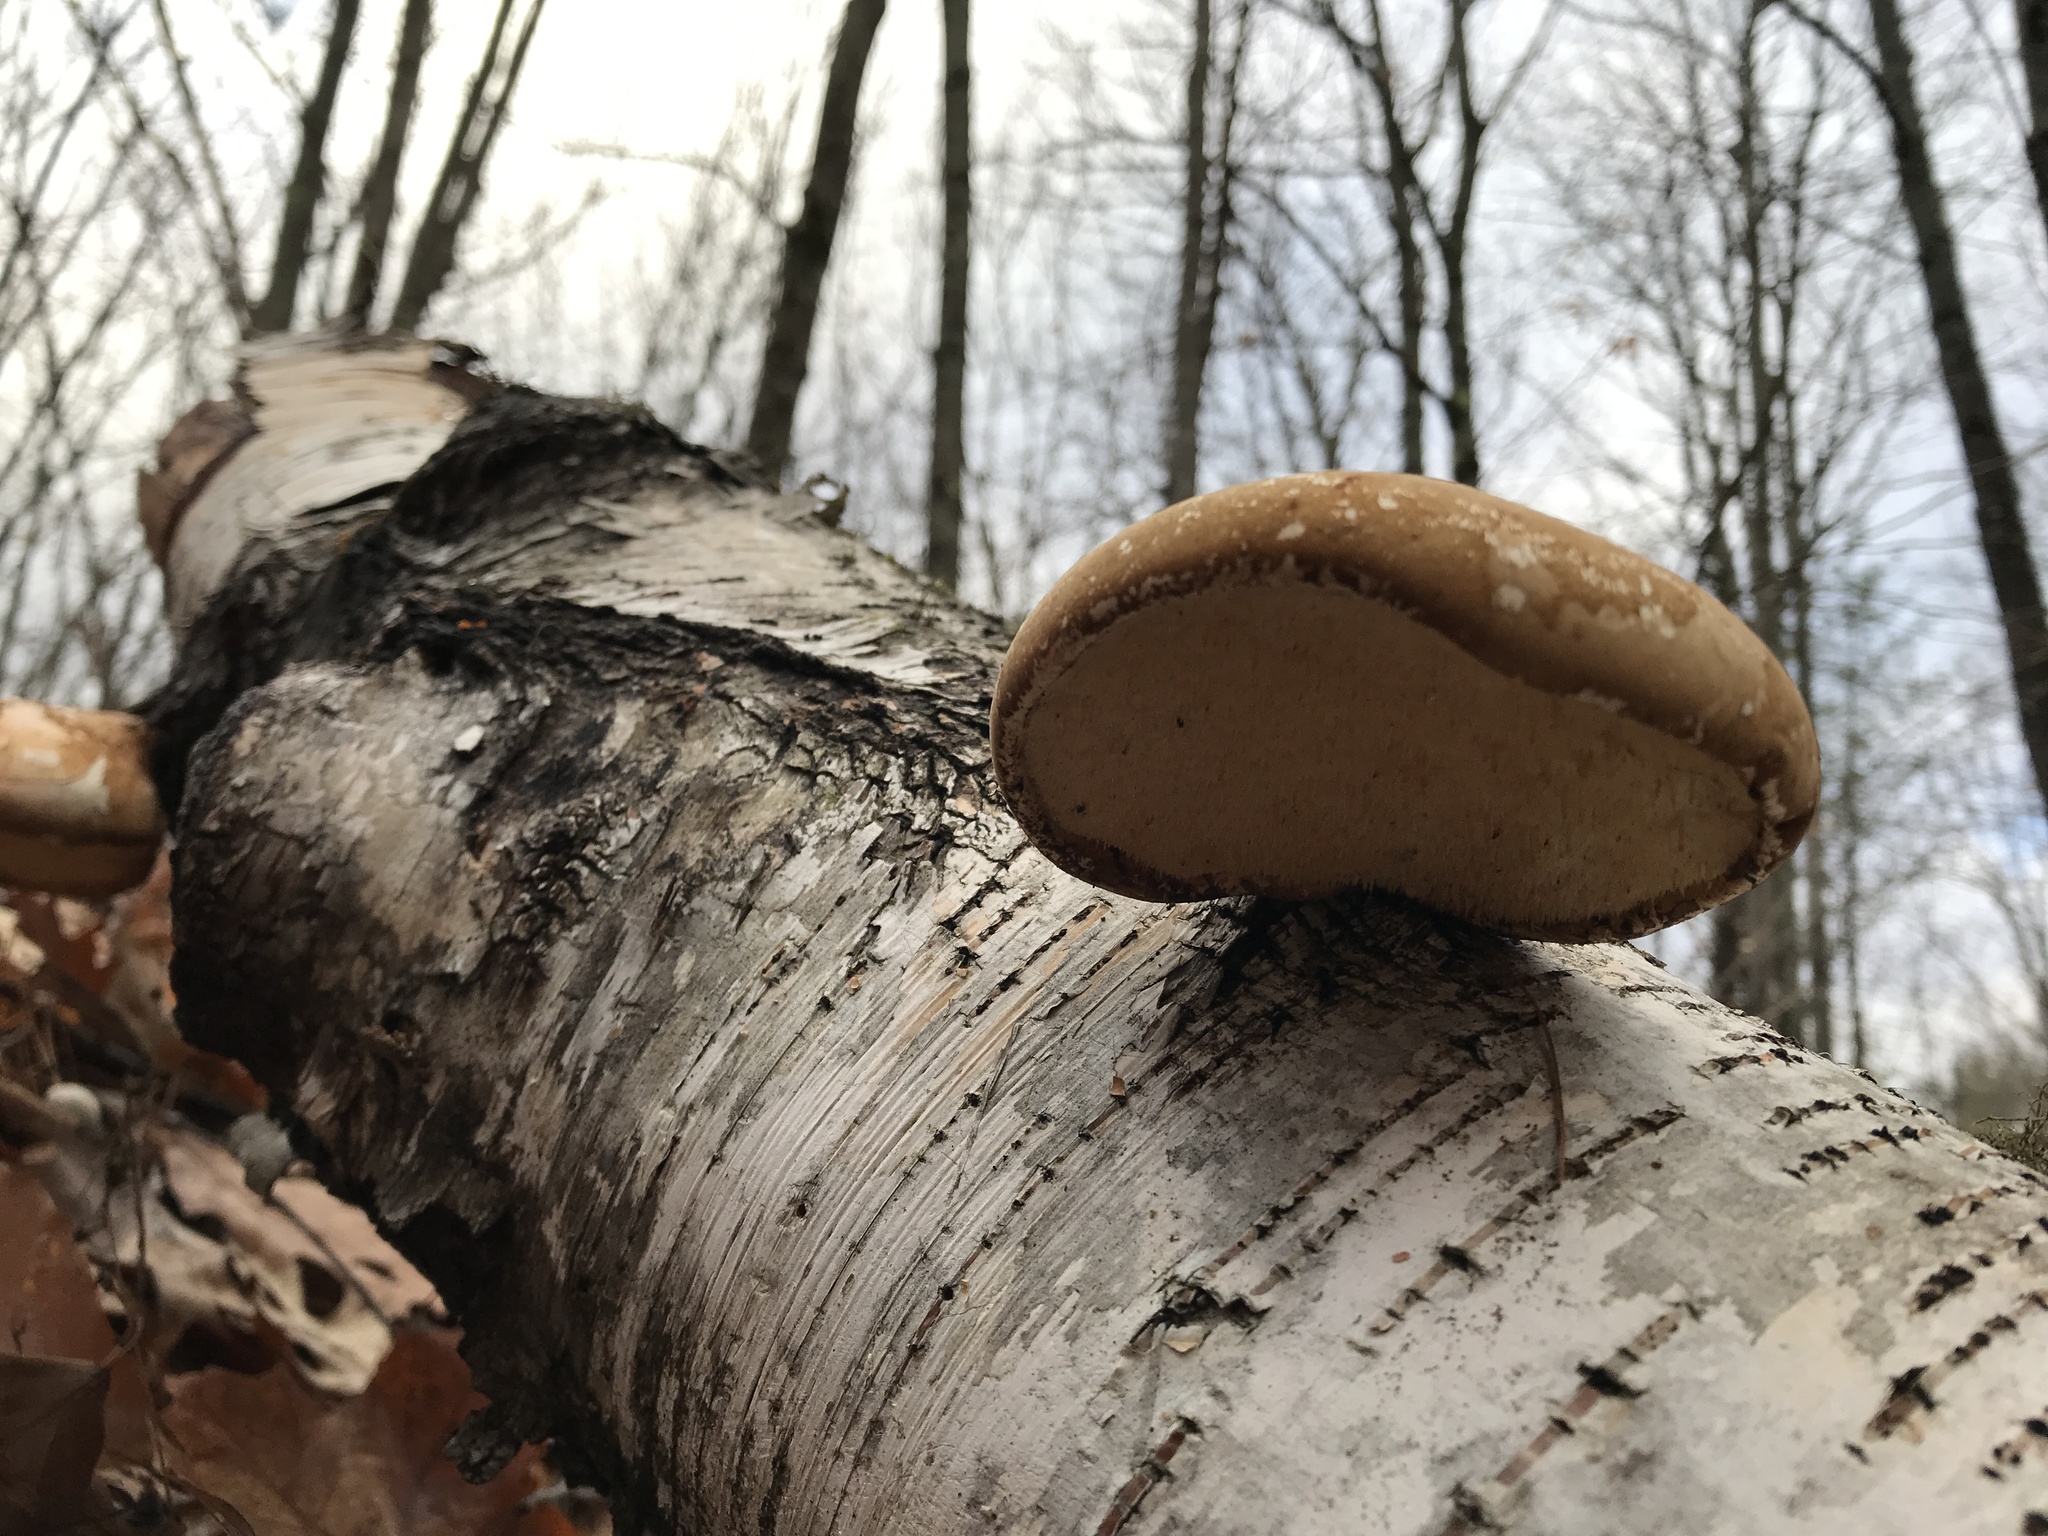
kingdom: Fungi
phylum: Basidiomycota
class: Agaricomycetes
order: Polyporales
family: Fomitopsidaceae
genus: Fomitopsis
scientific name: Fomitopsis betulina
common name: Birch polypore
